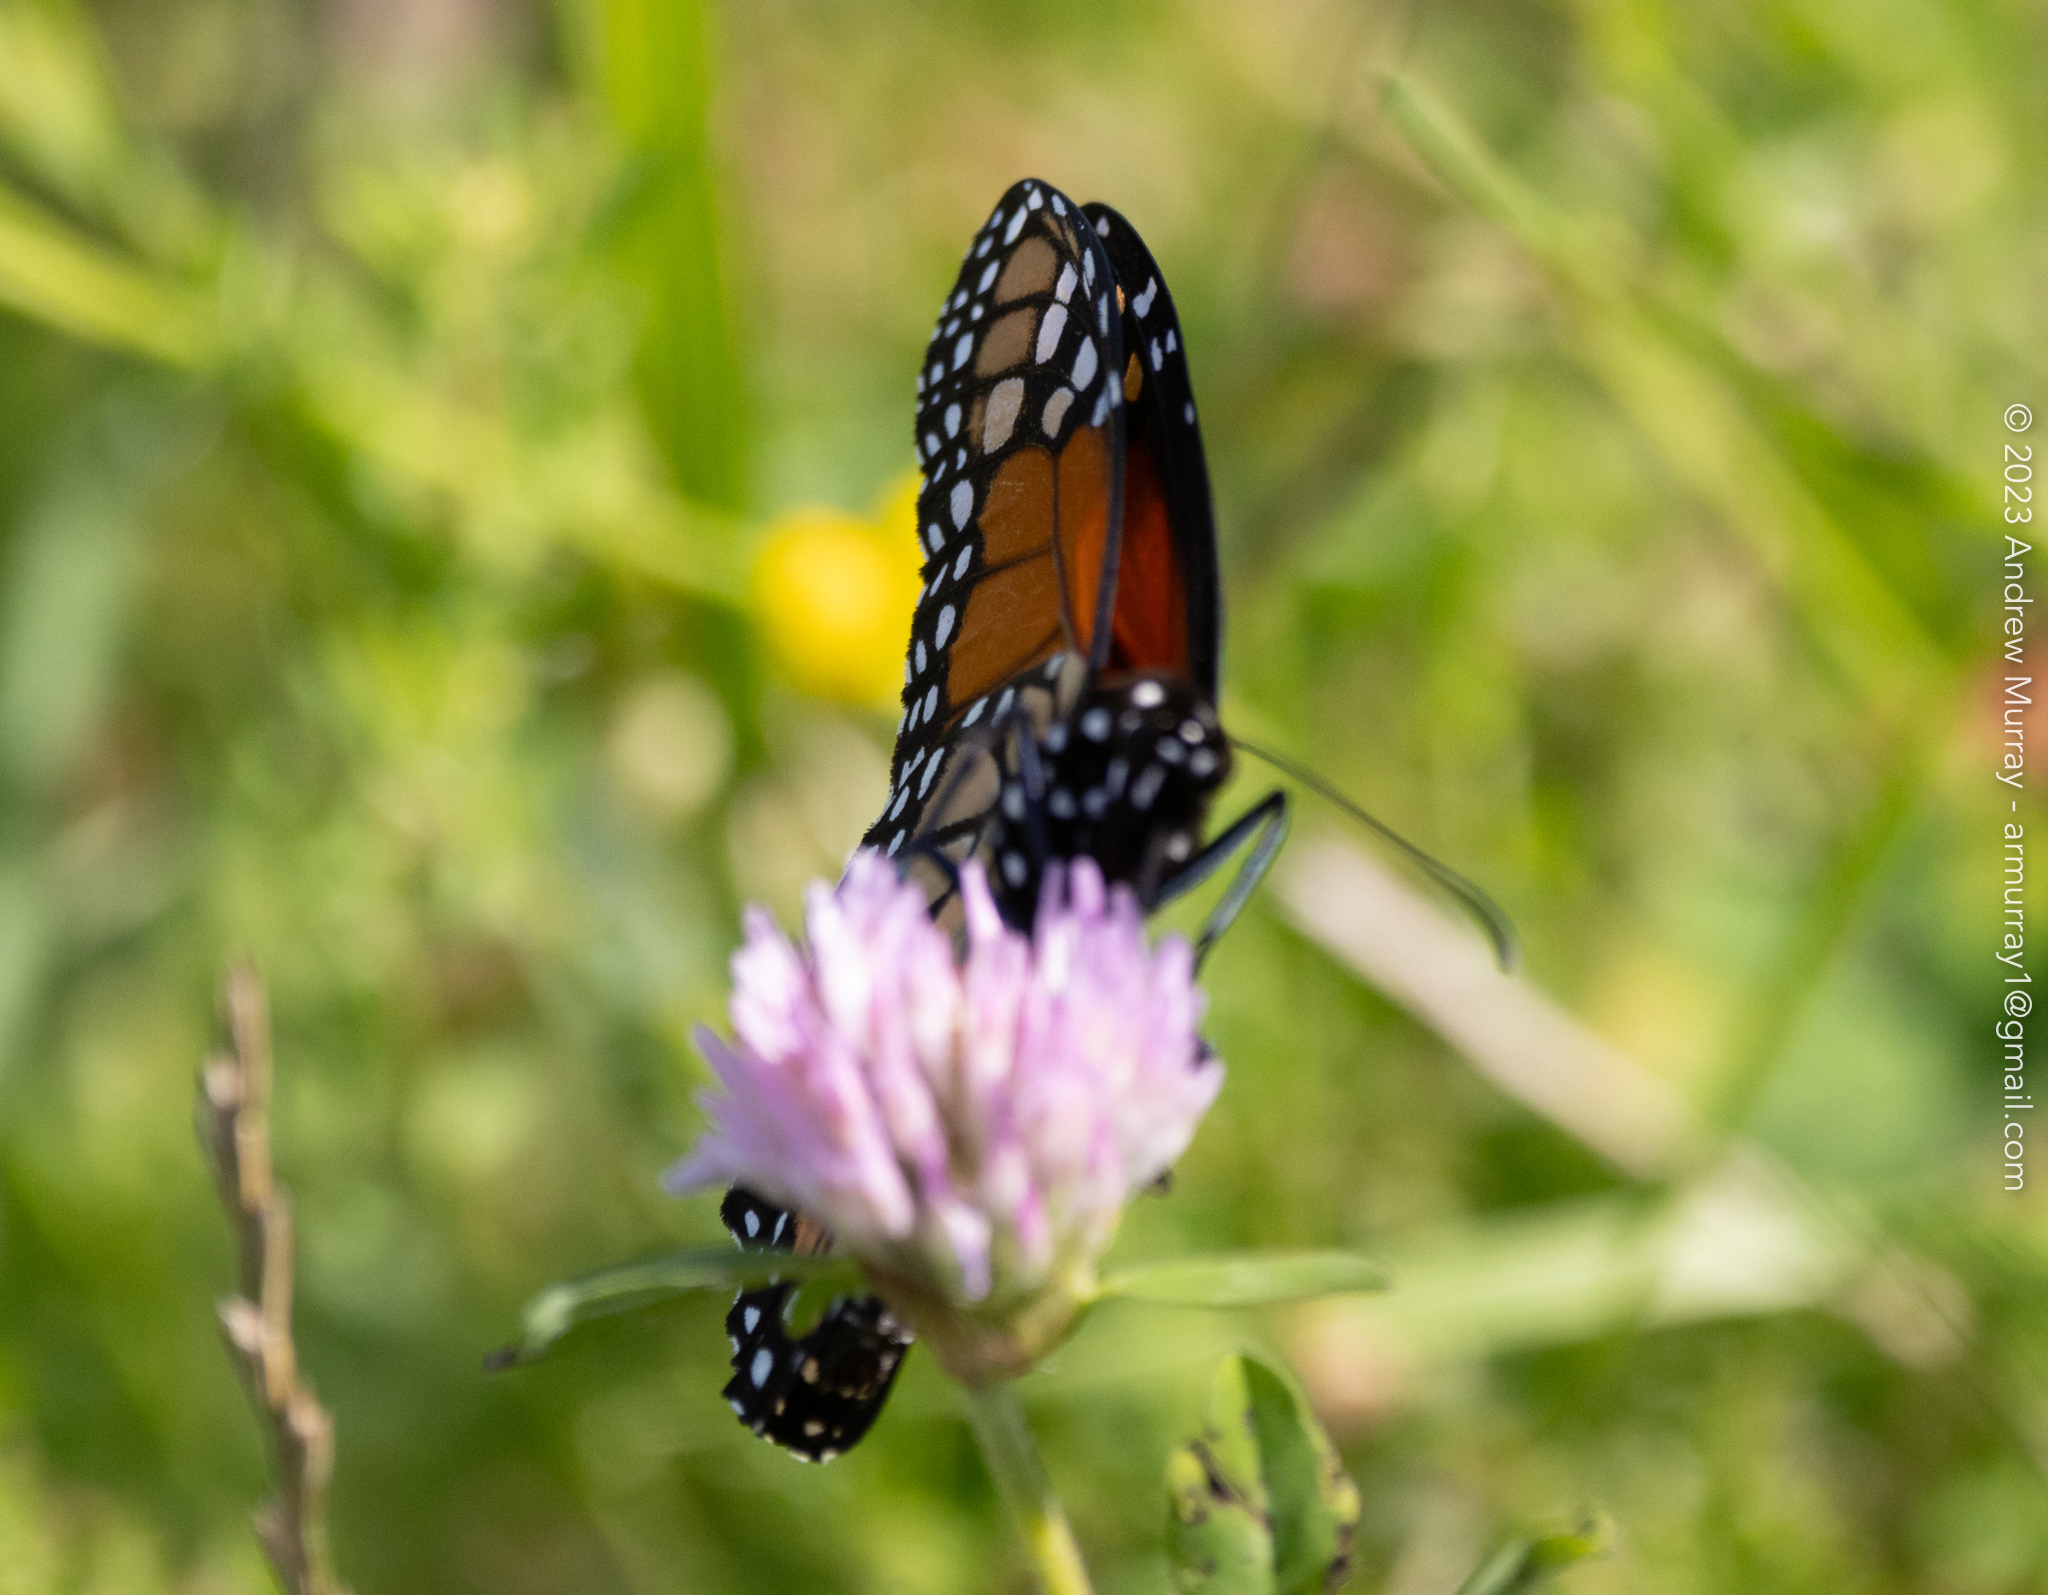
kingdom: Animalia
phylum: Arthropoda
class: Insecta
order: Lepidoptera
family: Nymphalidae
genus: Danaus
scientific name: Danaus plexippus
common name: Monarch
